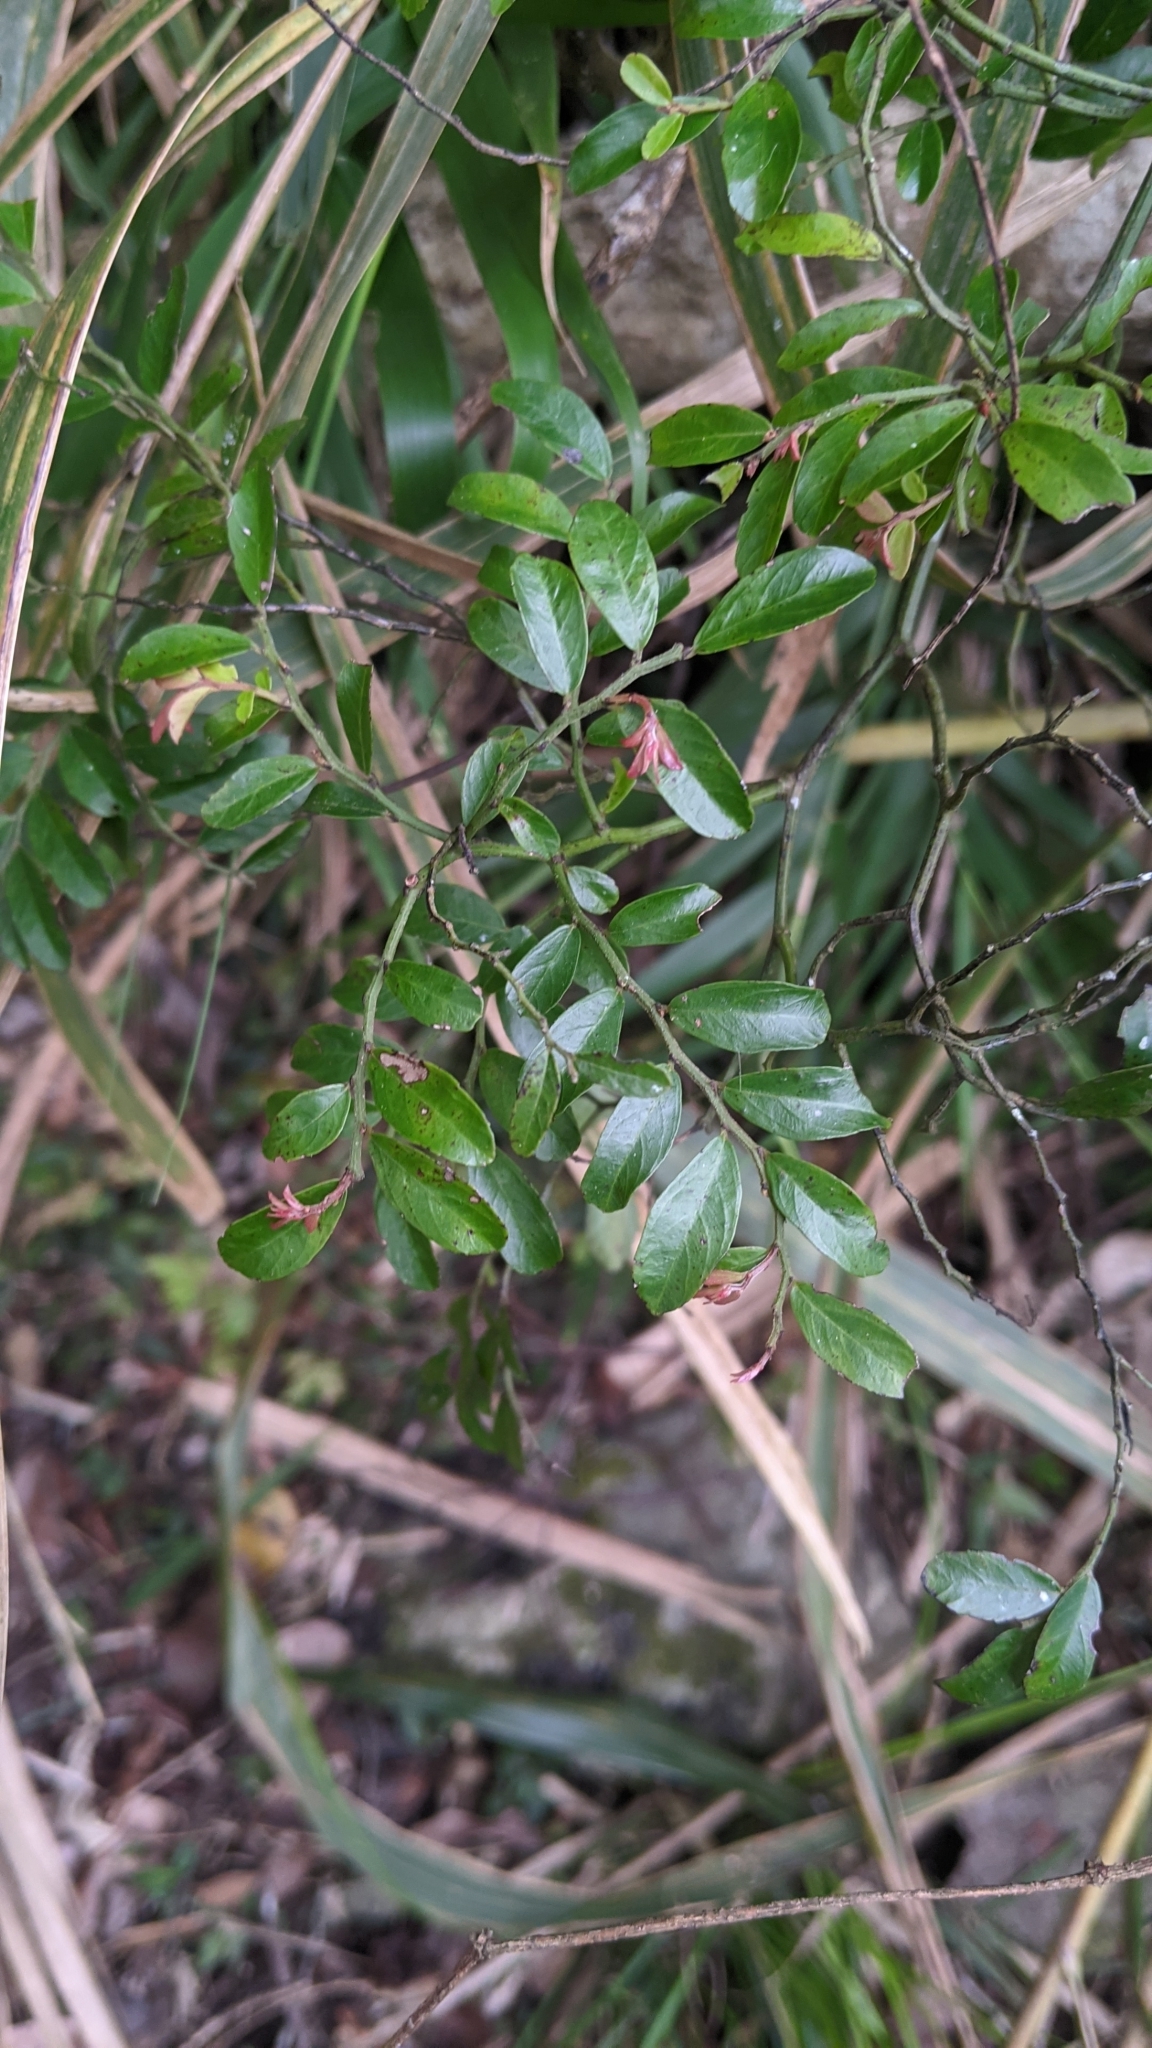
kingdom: Plantae
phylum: Tracheophyta
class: Magnoliopsida
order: Rosales
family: Rhamnaceae
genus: Ventilago
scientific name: Ventilago elegans
